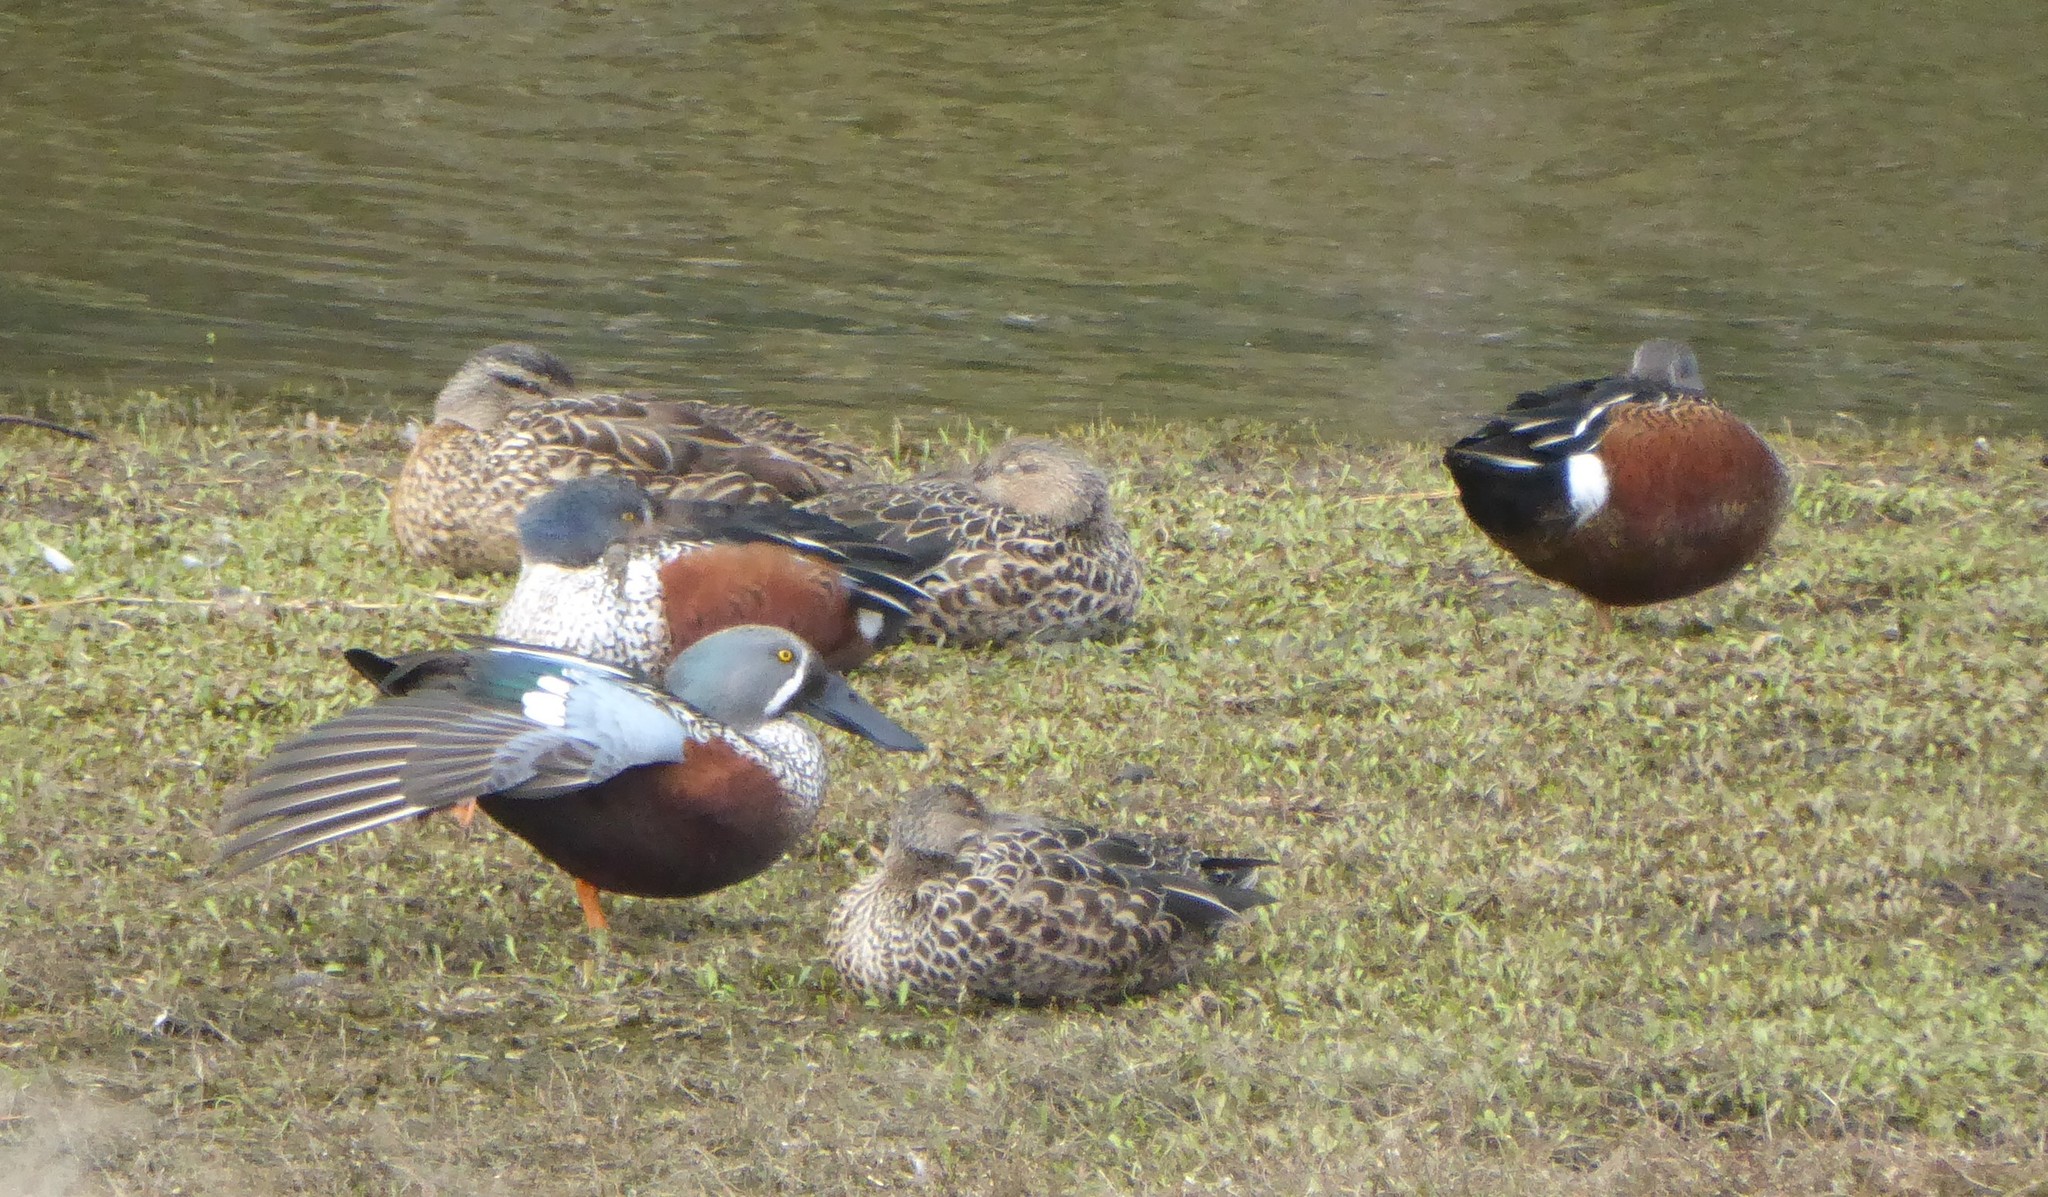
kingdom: Animalia
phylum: Chordata
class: Aves
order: Anseriformes
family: Anatidae
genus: Spatula
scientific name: Spatula rhynchotis
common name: Australian shoveler
